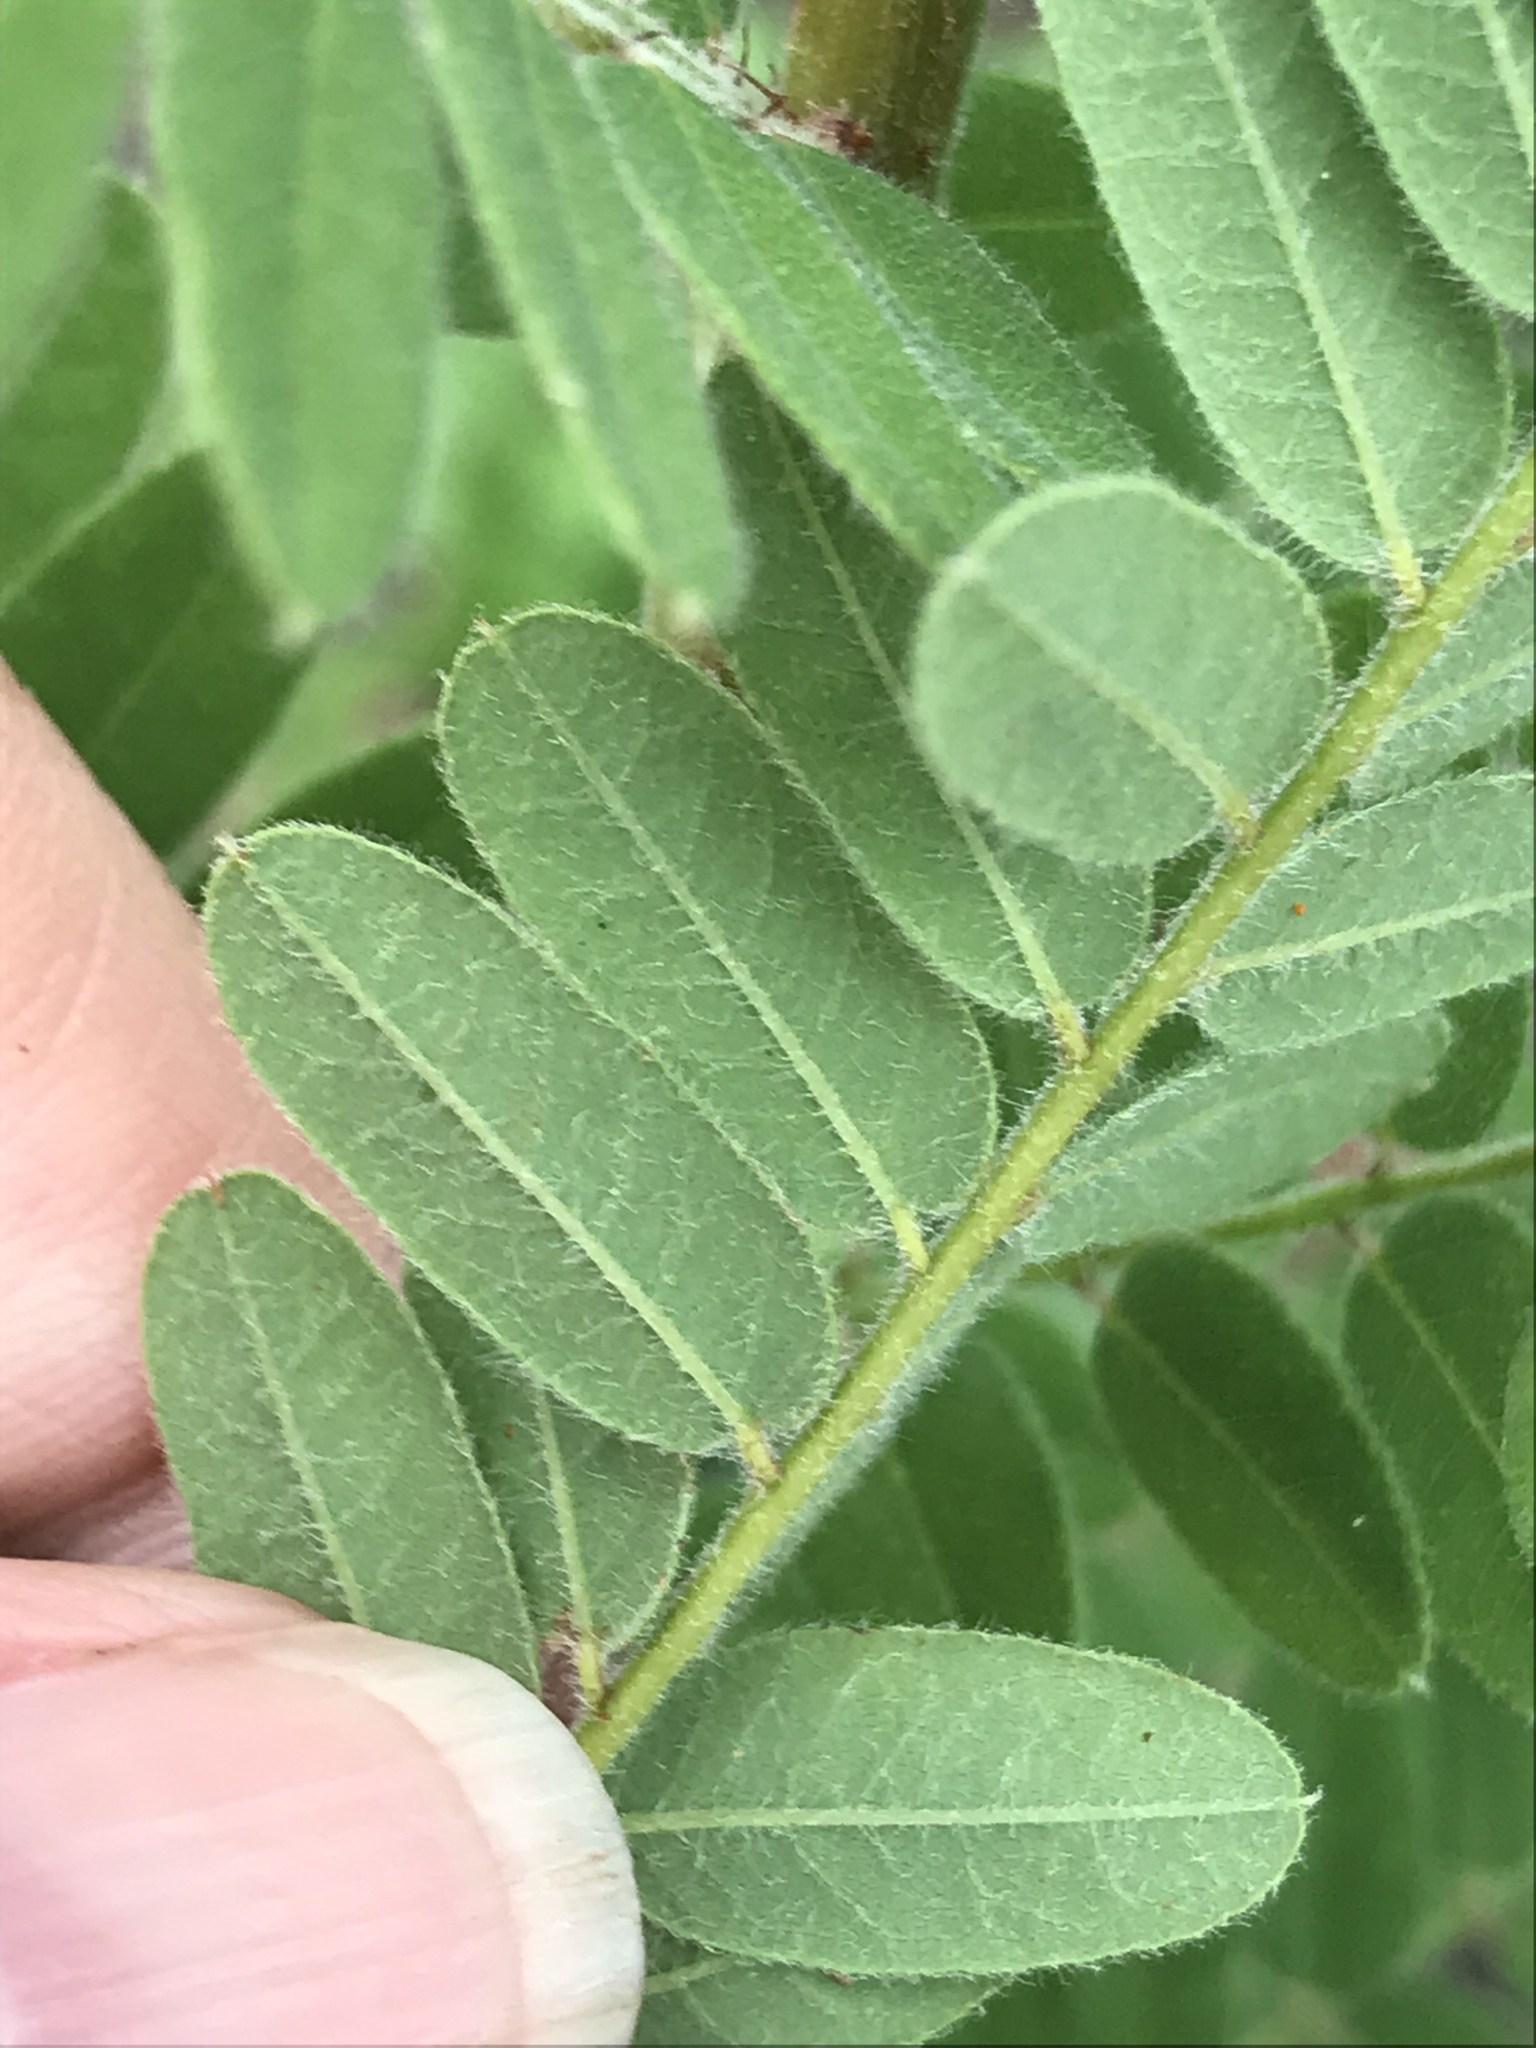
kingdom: Plantae
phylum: Tracheophyta
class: Magnoliopsida
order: Fabales
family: Fabaceae
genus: Amorpha
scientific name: Amorpha canescens
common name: Leadplant
